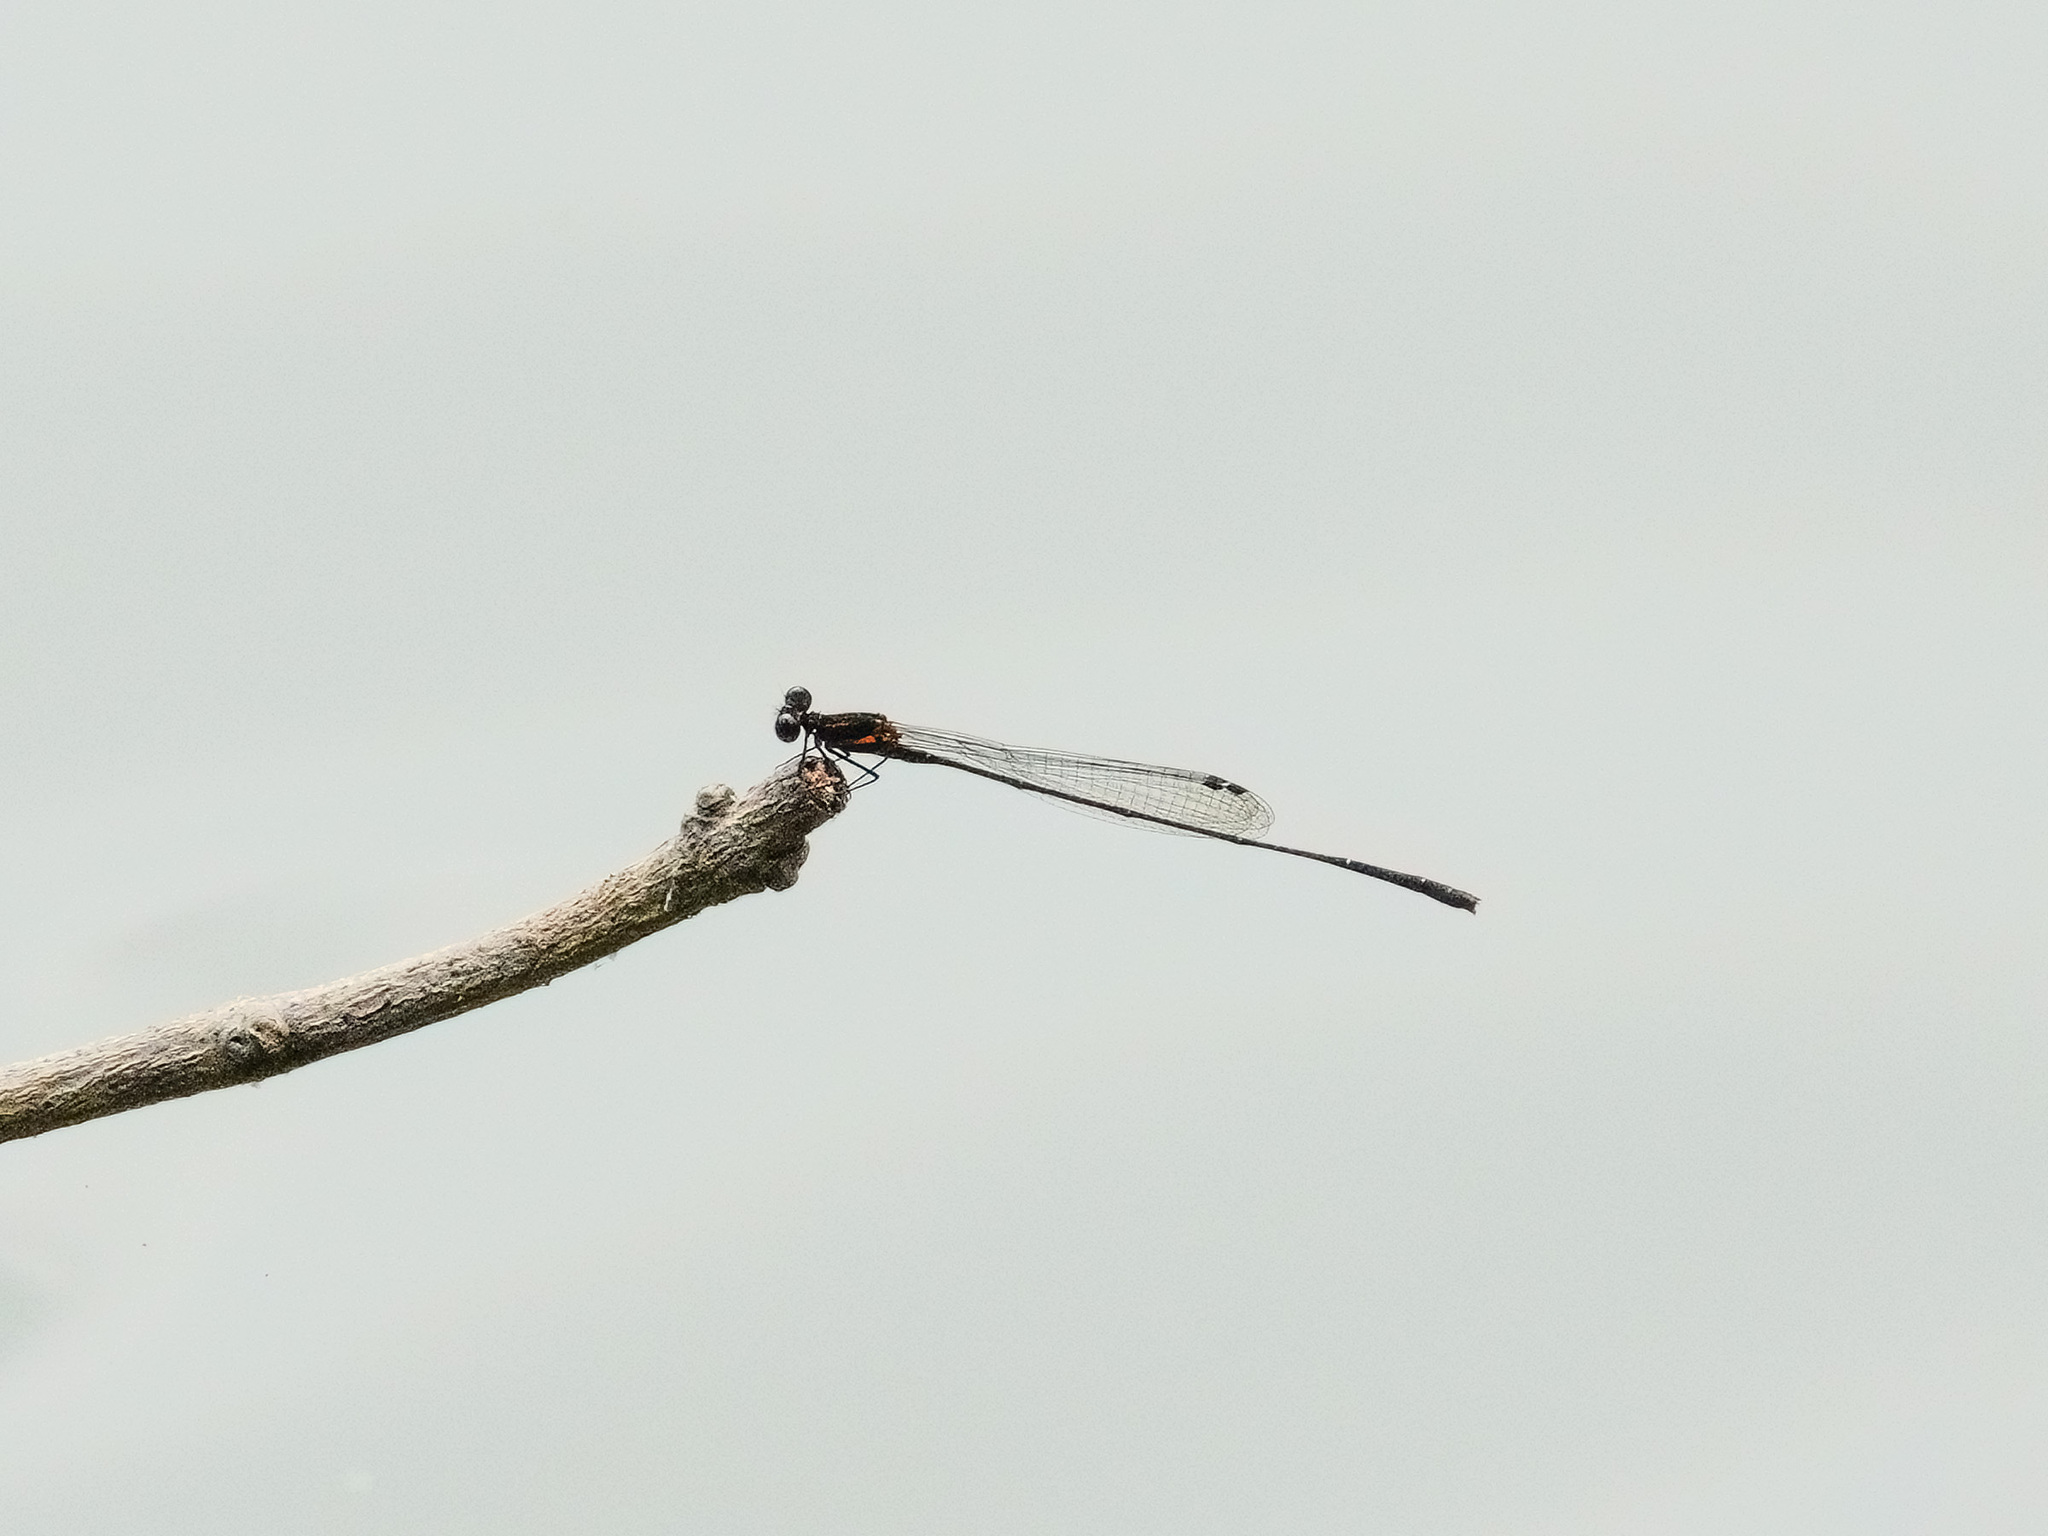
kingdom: Animalia
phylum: Arthropoda
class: Insecta
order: Odonata
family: Platycnemididae
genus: Prodasineura
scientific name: Prodasineura verticalis
